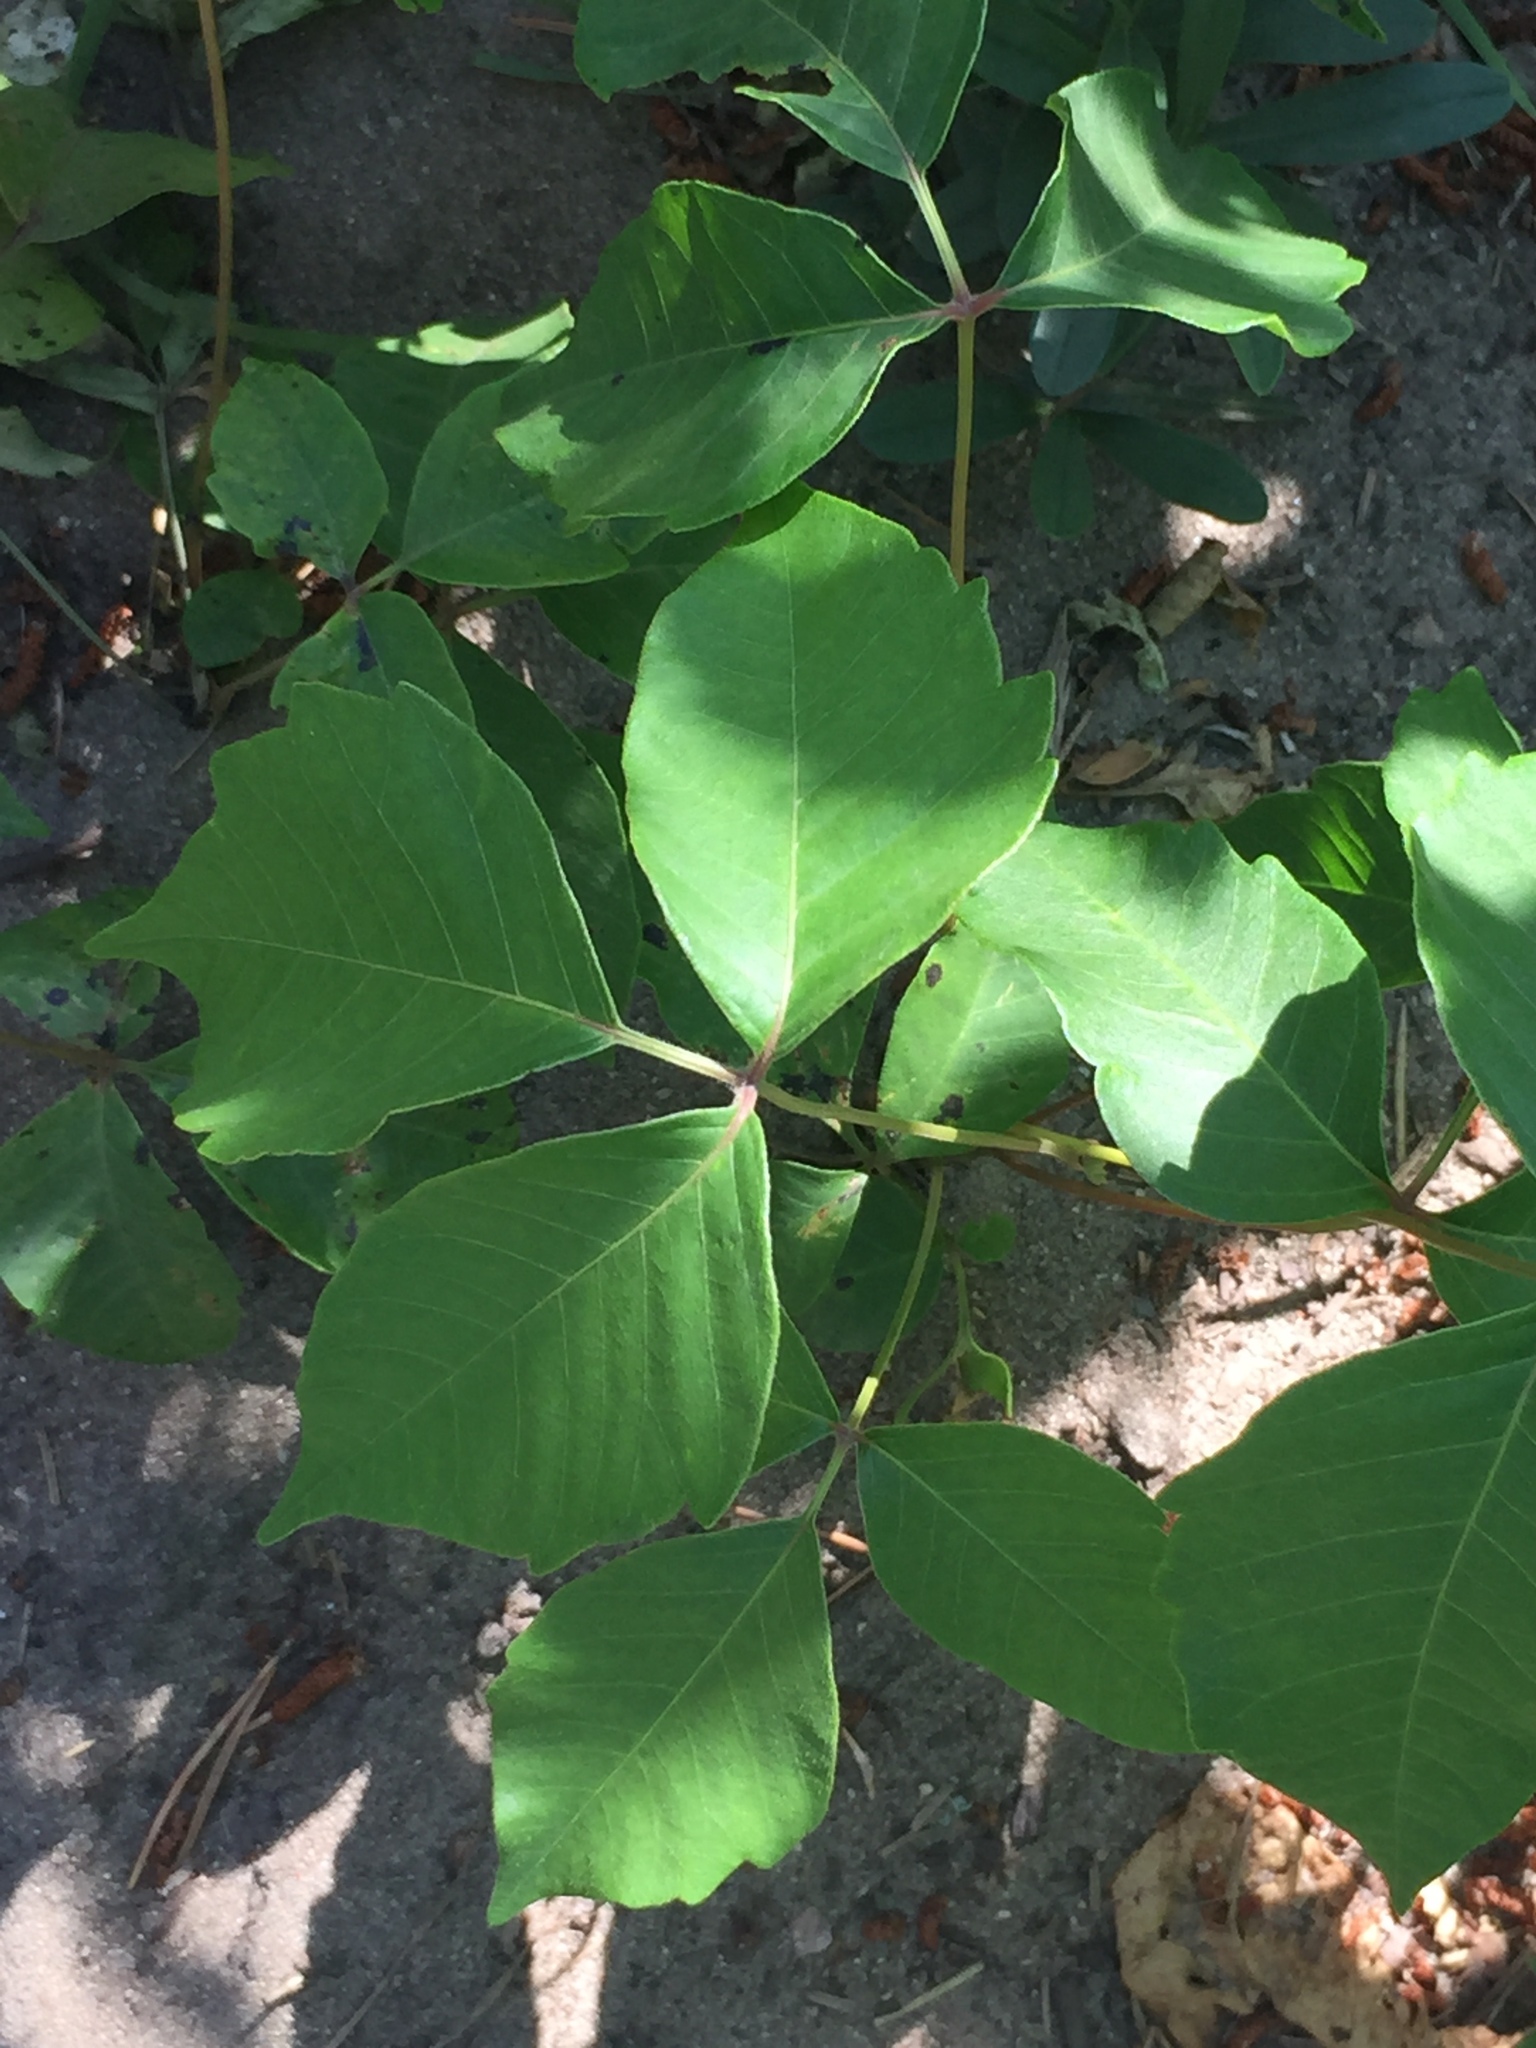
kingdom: Plantae
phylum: Tracheophyta
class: Magnoliopsida
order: Sapindales
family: Anacardiaceae
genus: Toxicodendron
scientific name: Toxicodendron rydbergii
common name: Rydberg's poison-ivy
